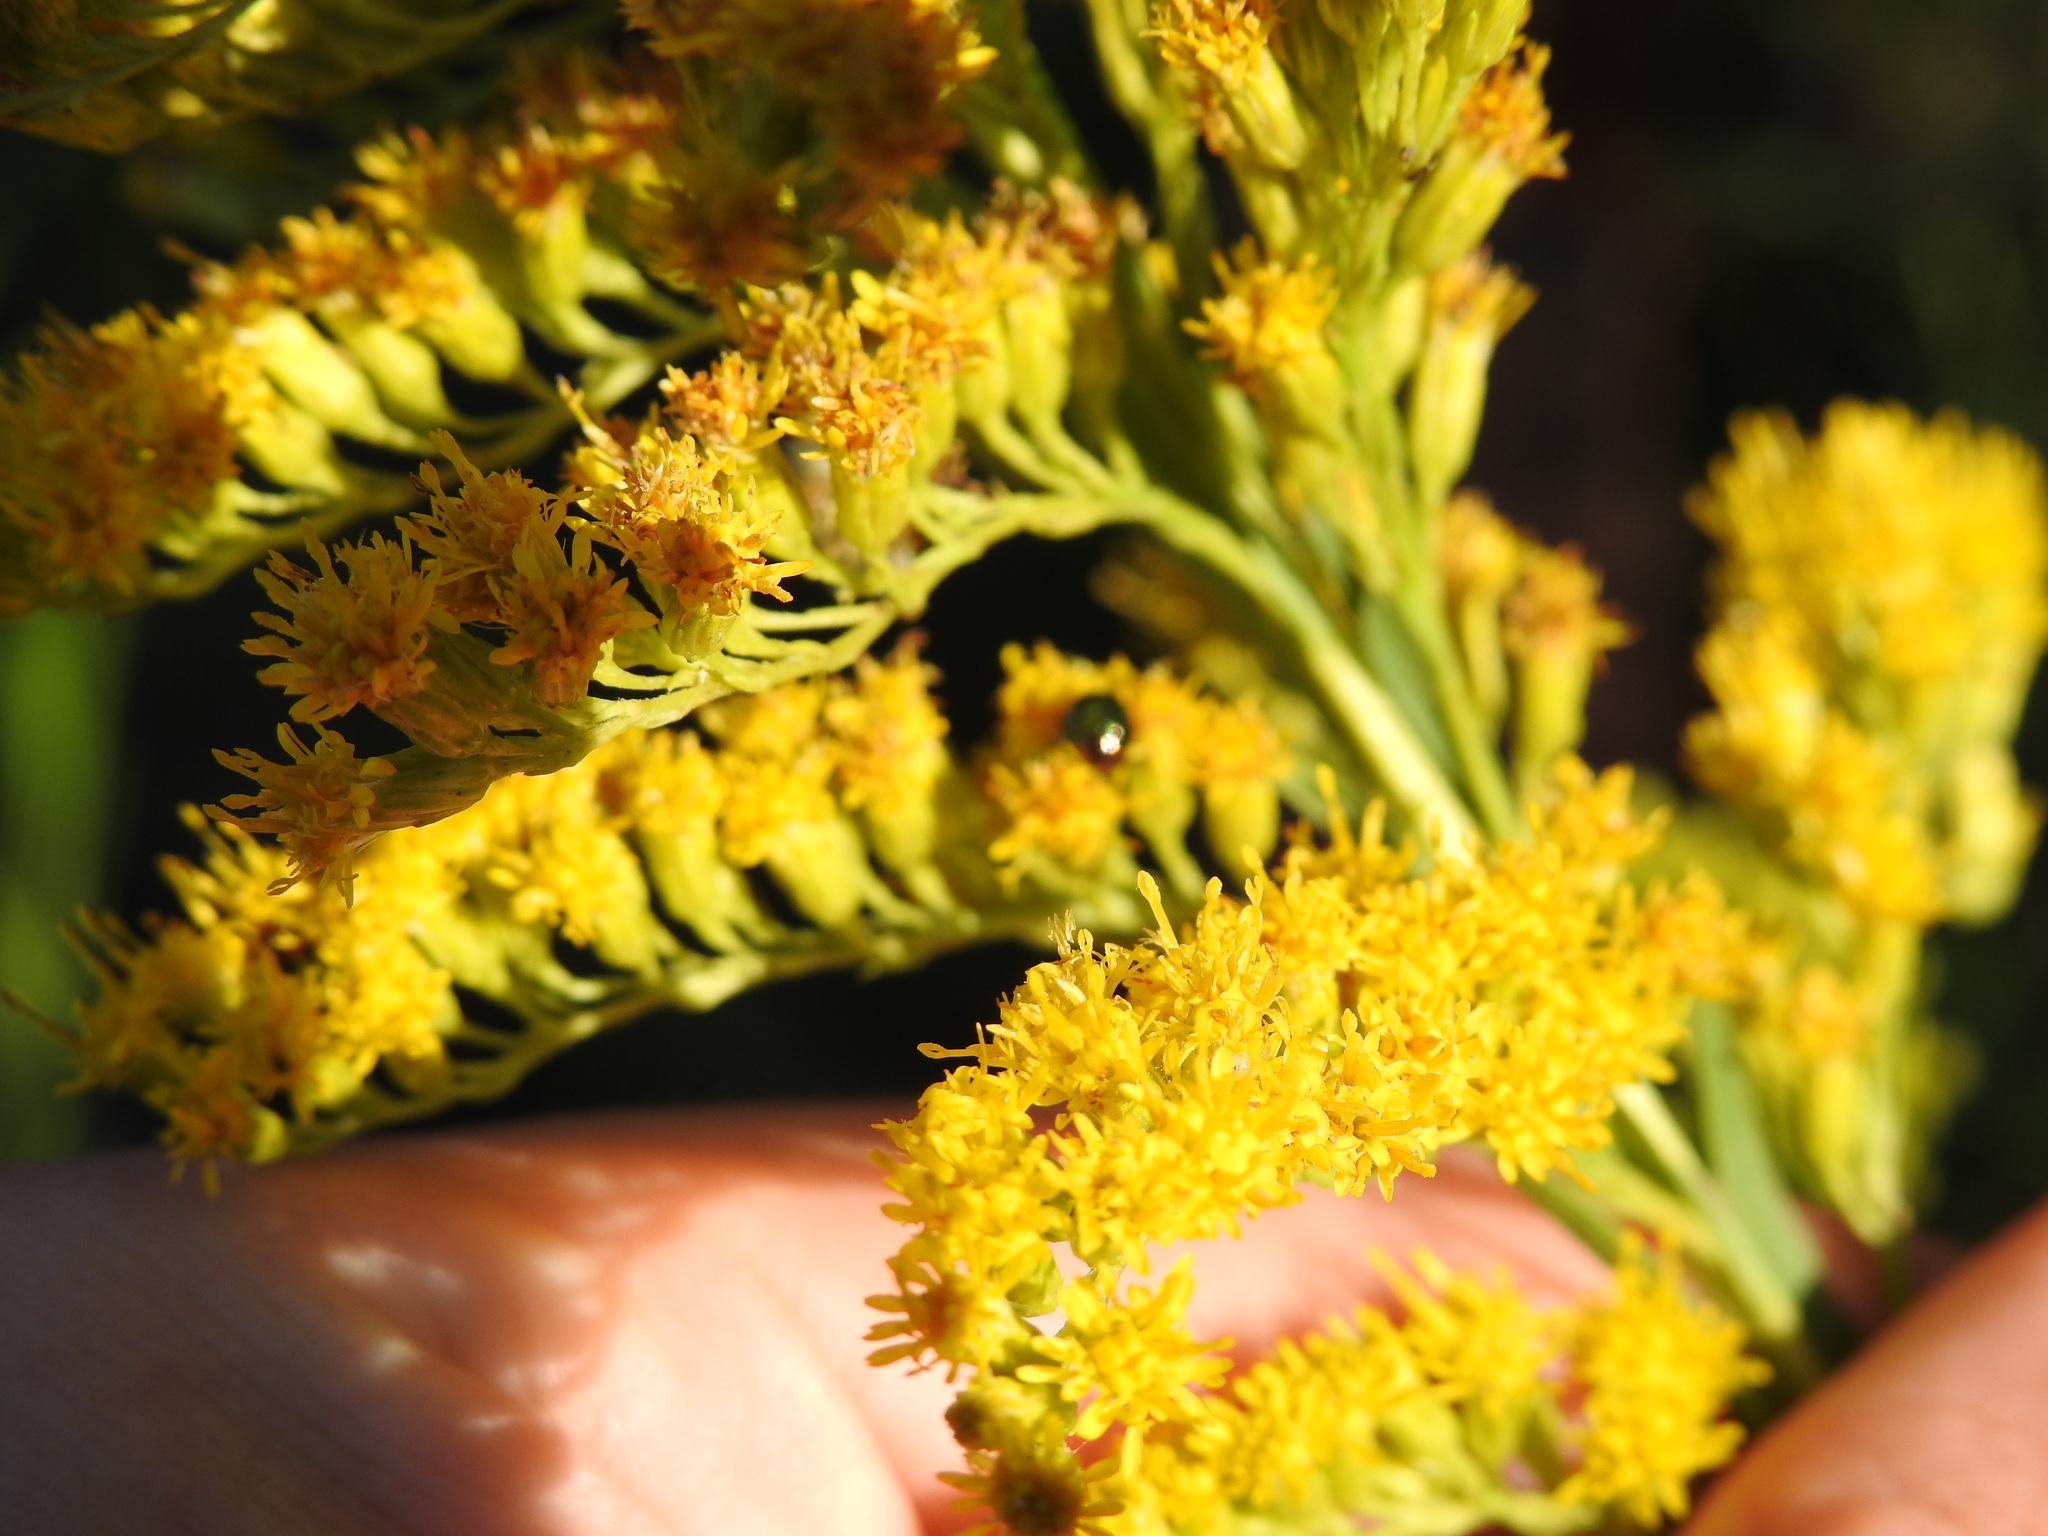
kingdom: Plantae
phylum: Tracheophyta
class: Magnoliopsida
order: Asterales
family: Asteraceae
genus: Solidago
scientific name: Solidago chilensis
